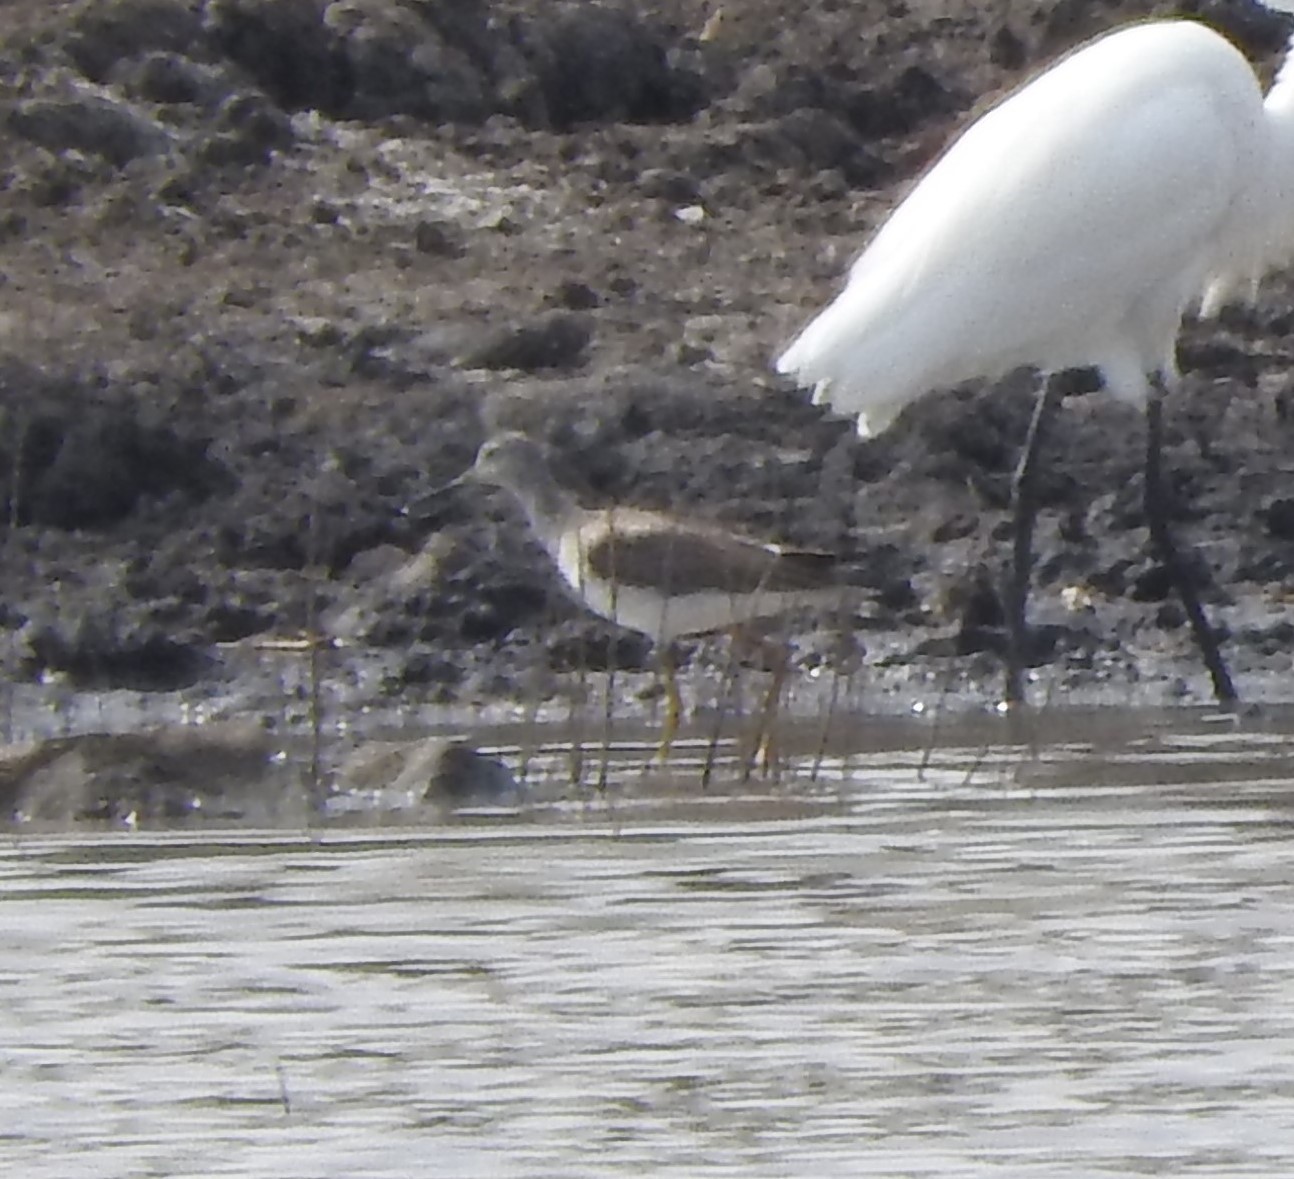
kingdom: Animalia
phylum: Chordata
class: Aves
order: Charadriiformes
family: Scolopacidae
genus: Tringa
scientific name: Tringa melanoleuca
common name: Greater yellowlegs
